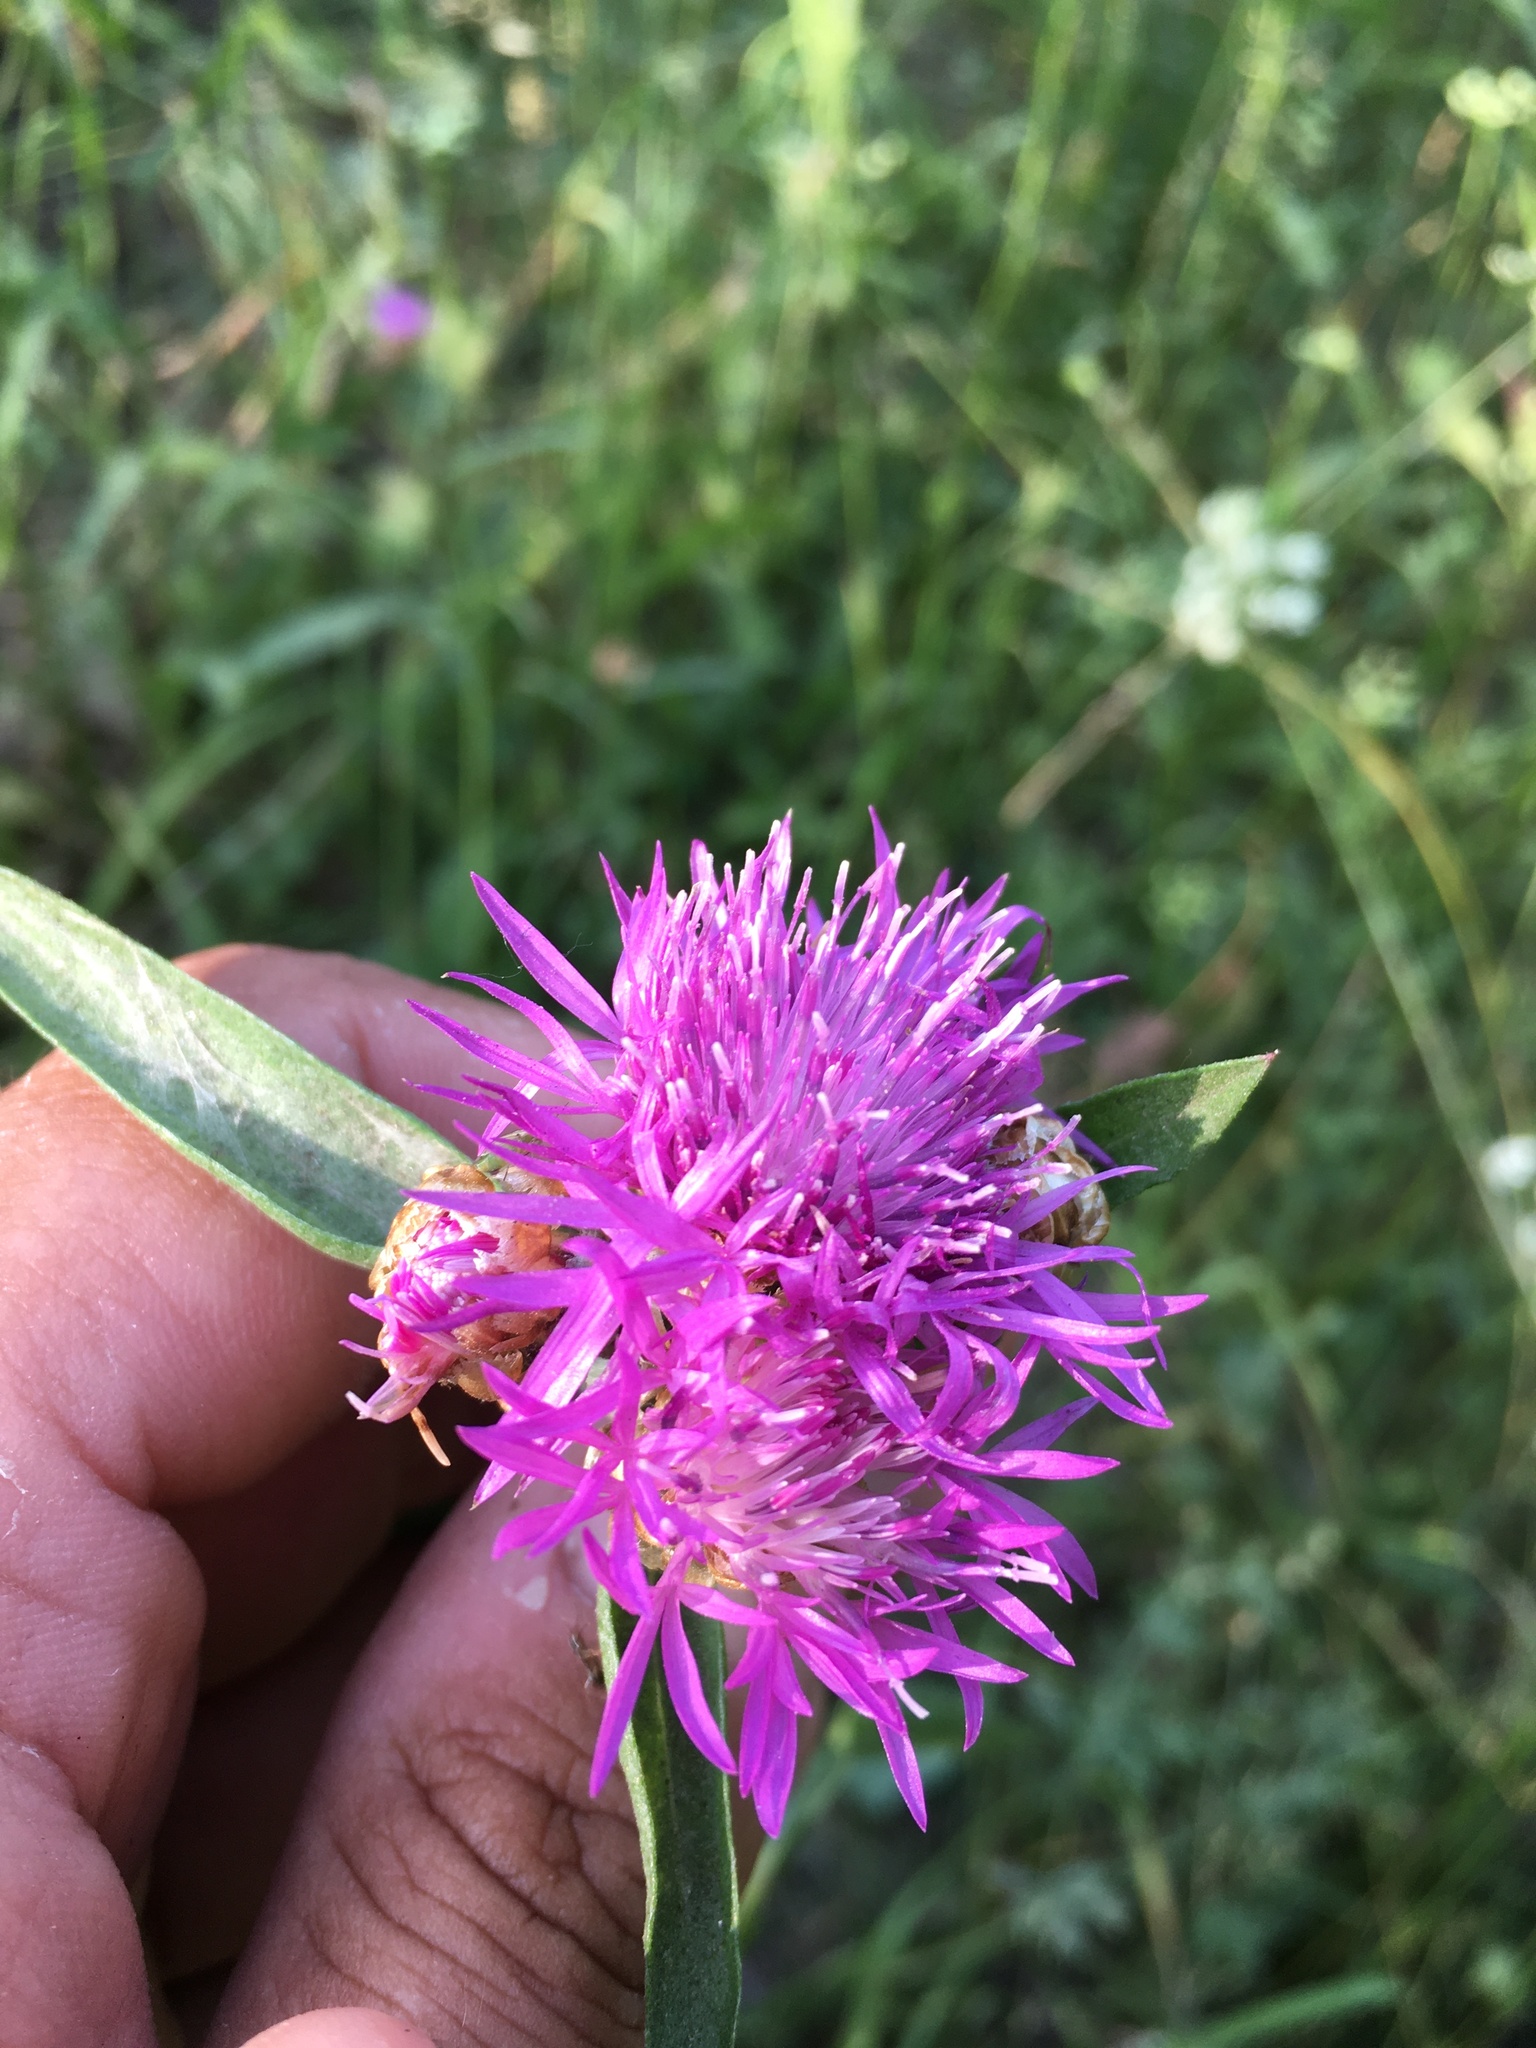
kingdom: Plantae
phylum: Tracheophyta
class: Magnoliopsida
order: Asterales
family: Asteraceae
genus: Centaurea
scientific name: Centaurea jacea
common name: Brown knapweed
